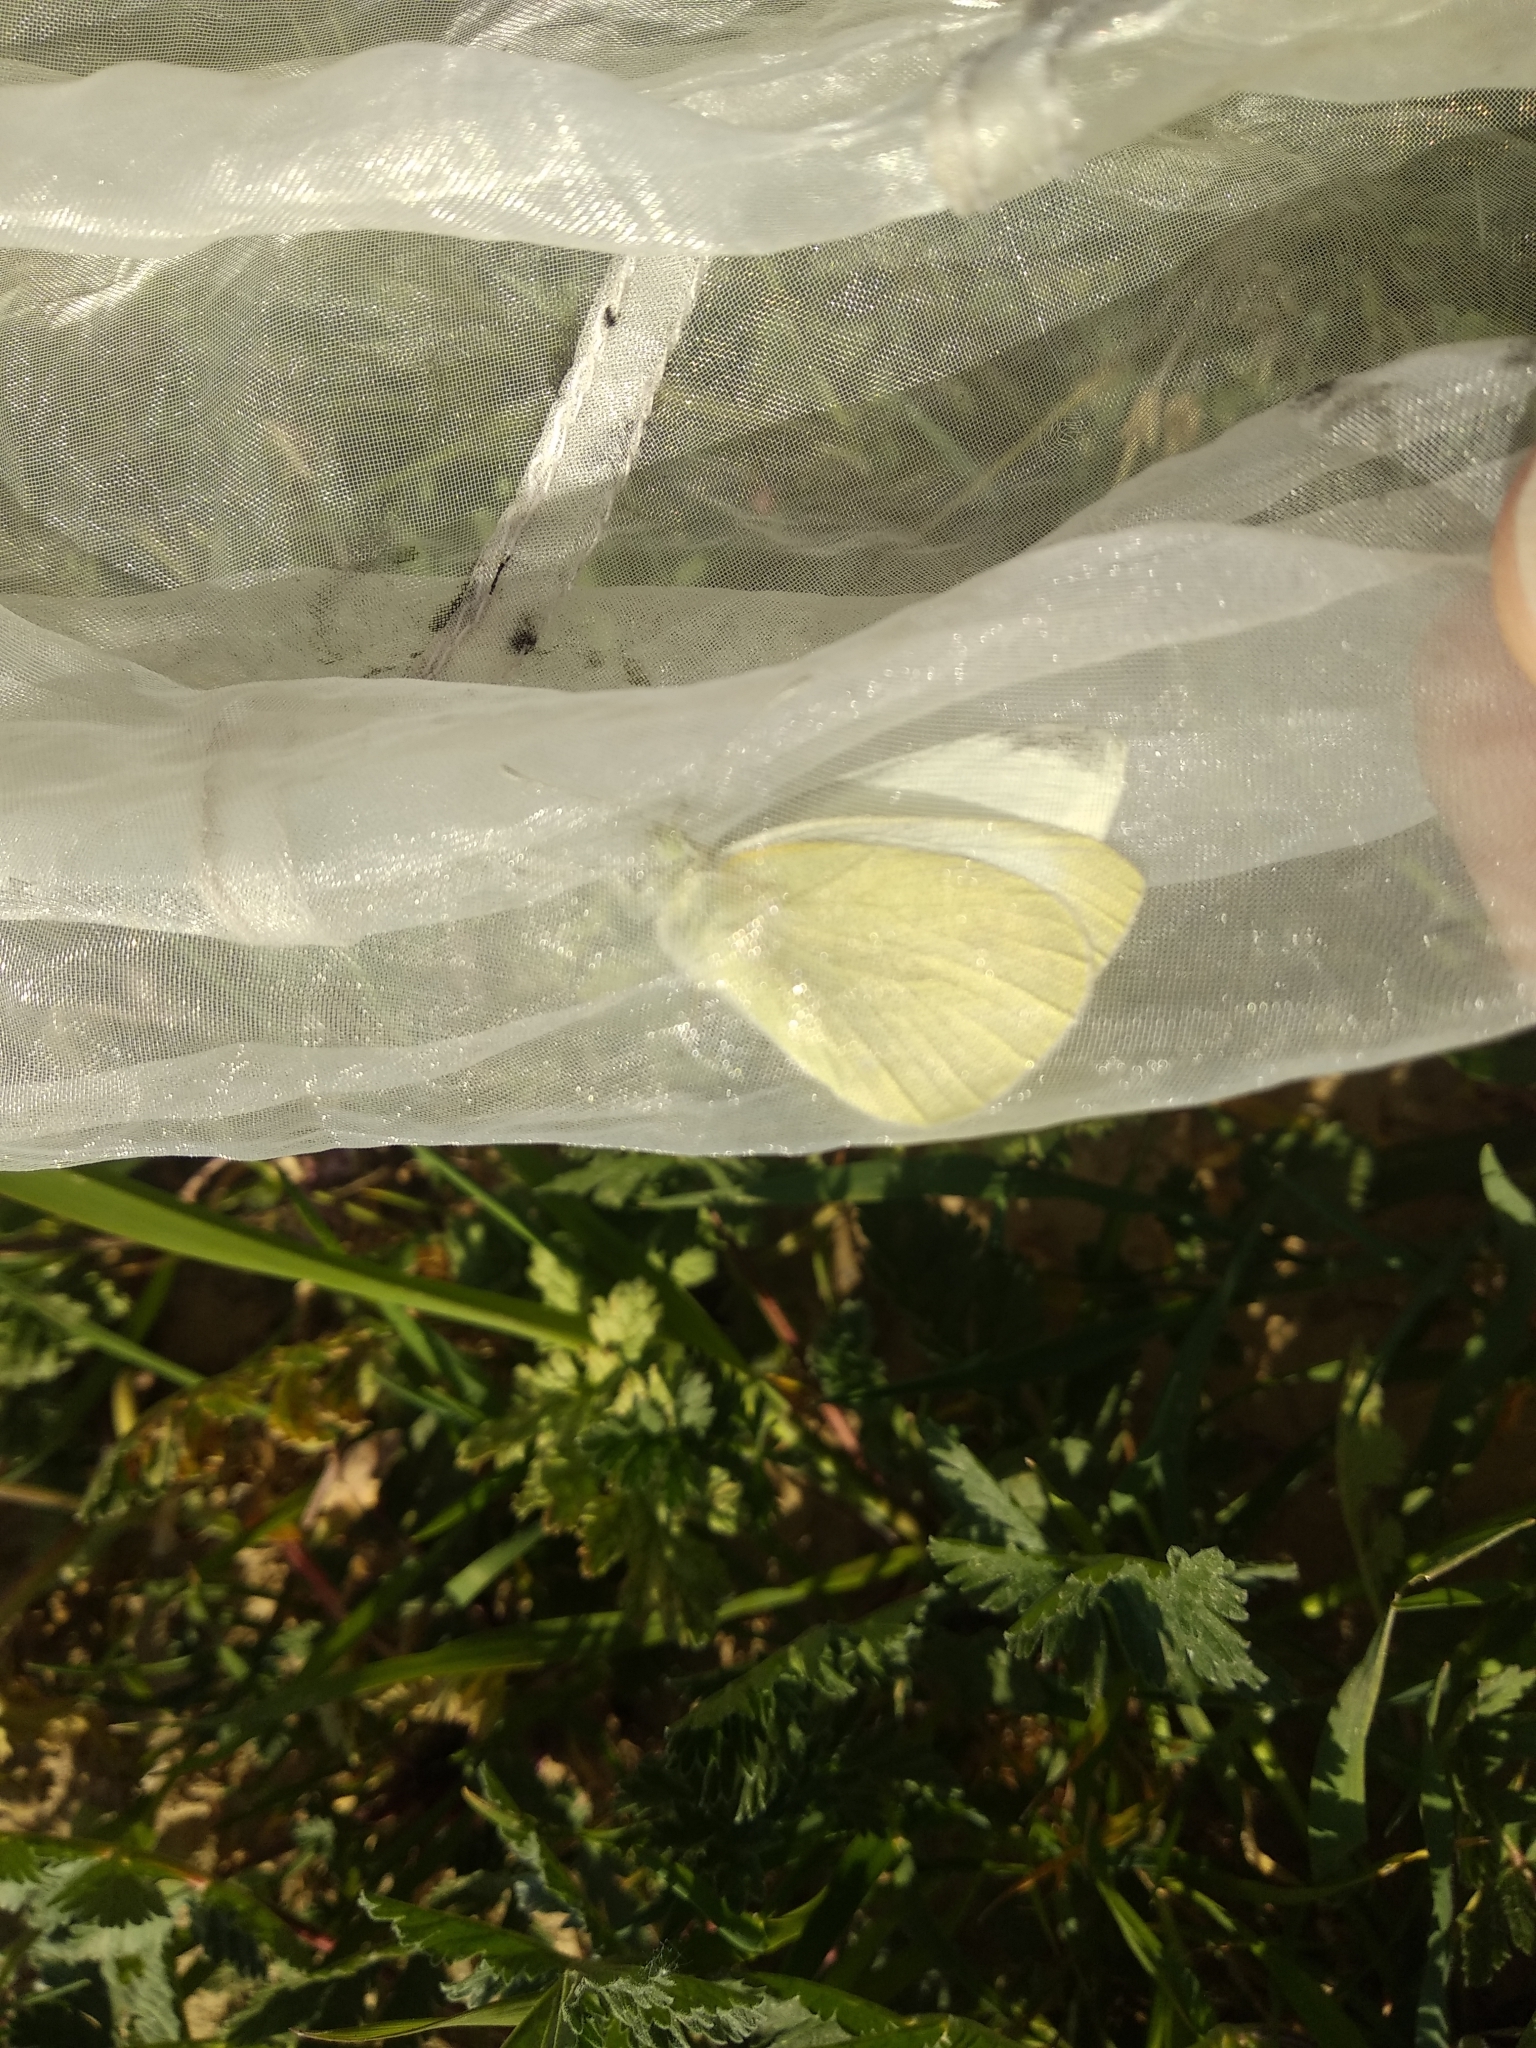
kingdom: Animalia
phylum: Arthropoda
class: Insecta
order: Lepidoptera
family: Pieridae
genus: Pieris
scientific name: Pieris rapae
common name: Small white
